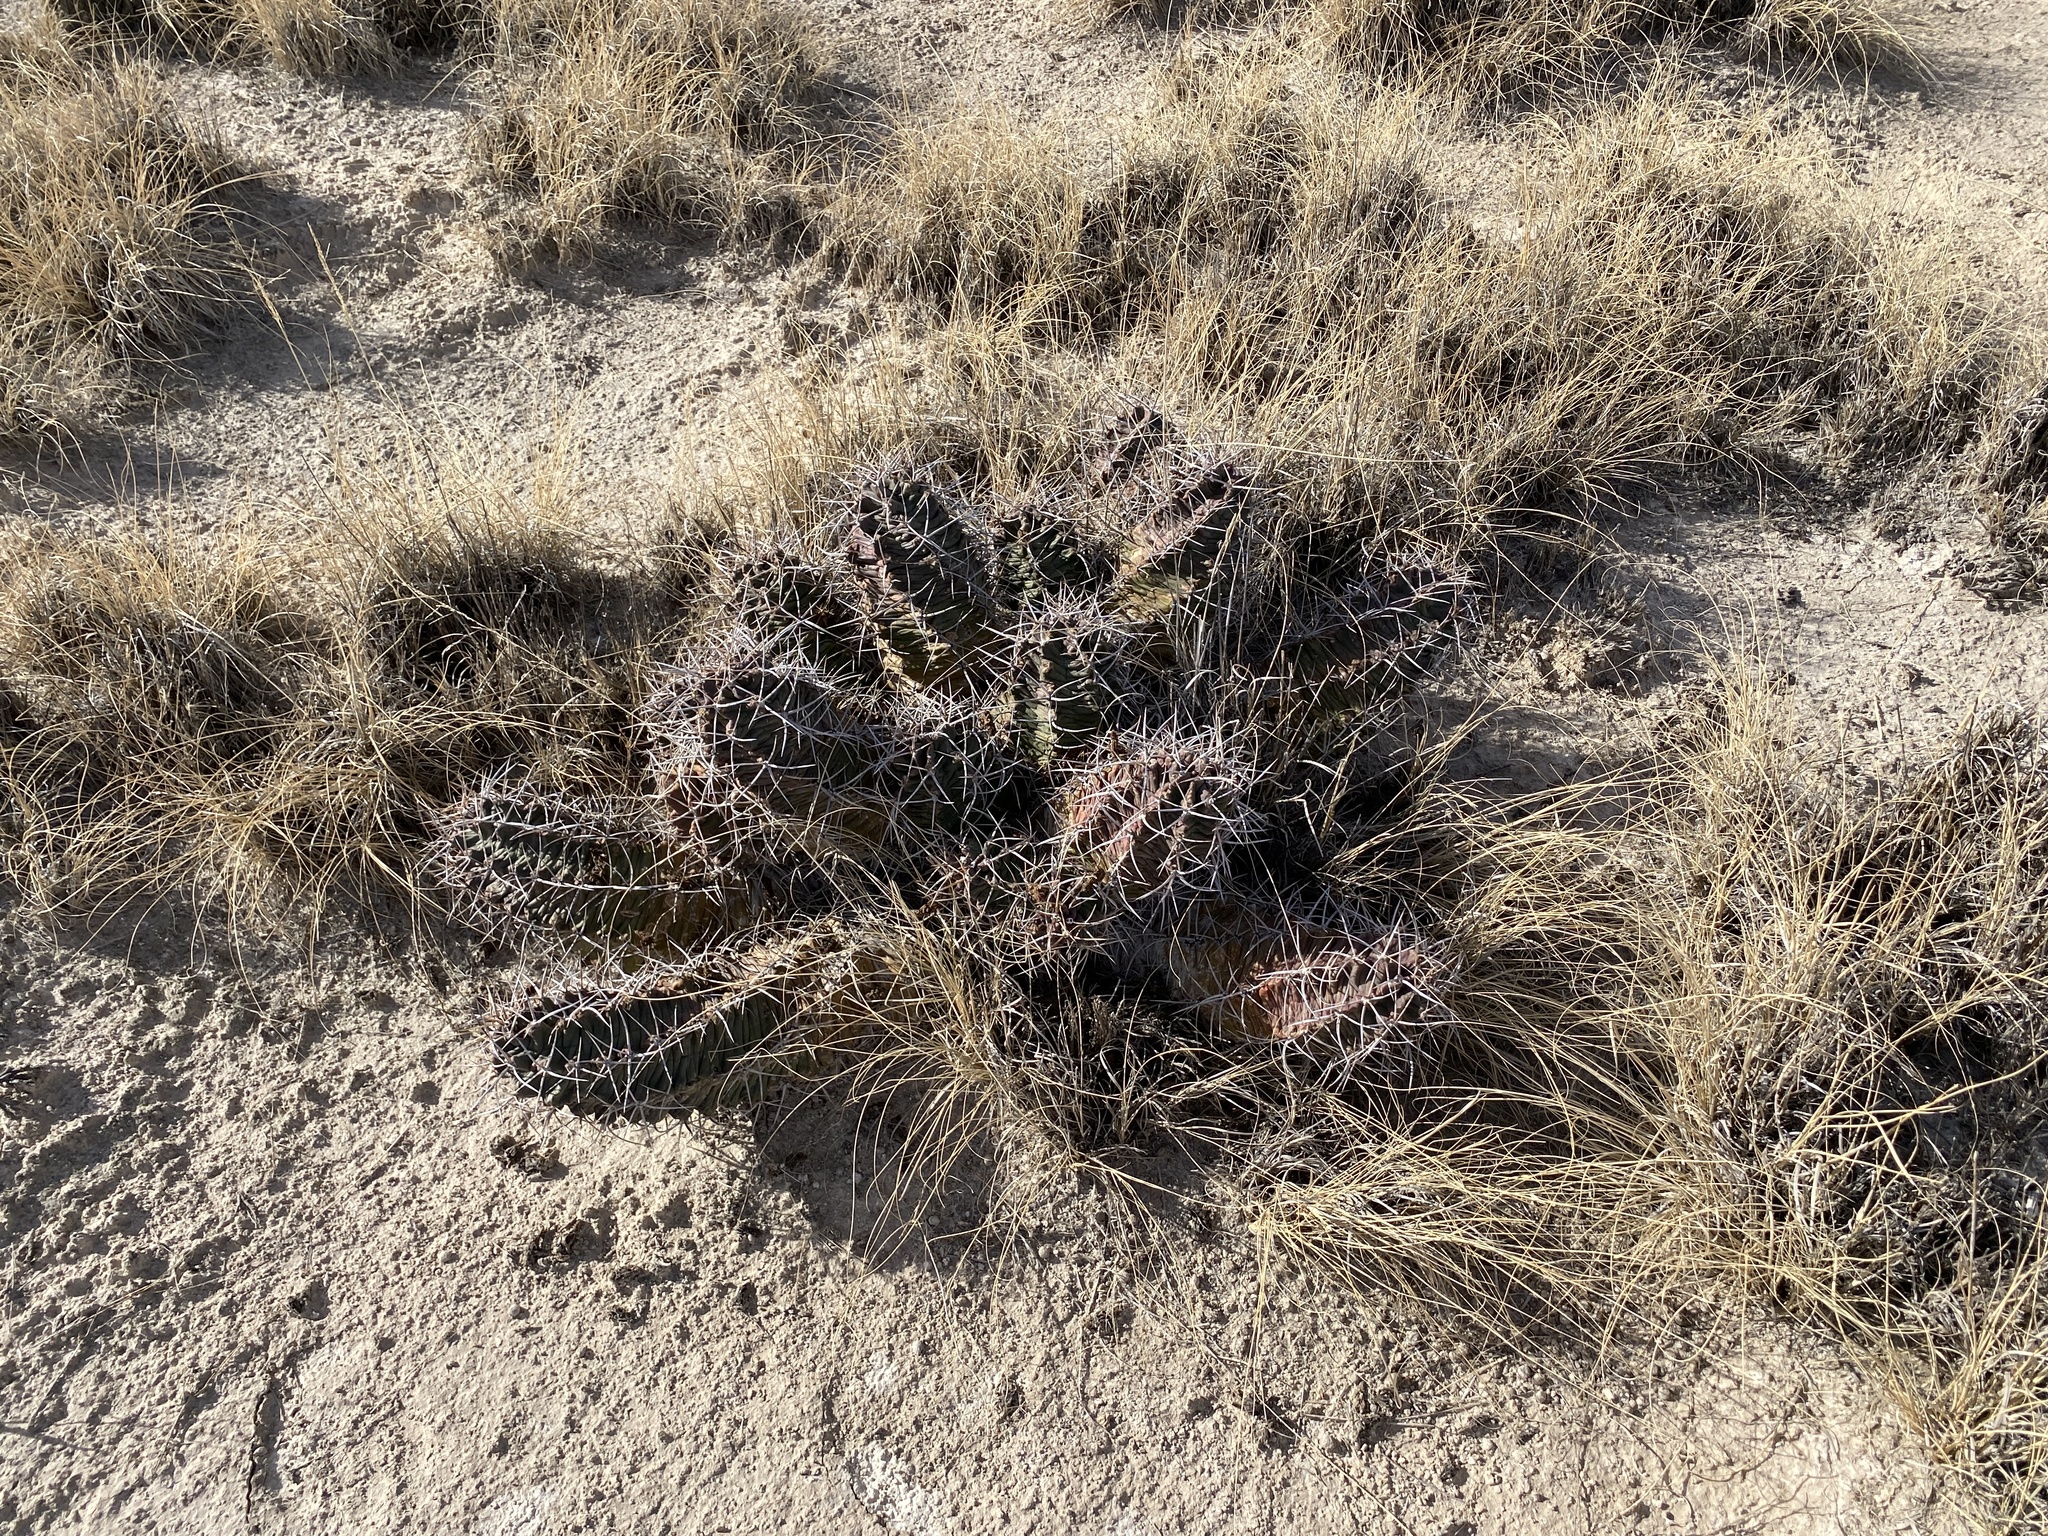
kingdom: Plantae
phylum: Tracheophyta
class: Magnoliopsida
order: Caryophyllales
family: Cactaceae
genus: Echinocereus
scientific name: Echinocereus triglochidiatus
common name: Claretcup hedgehog
